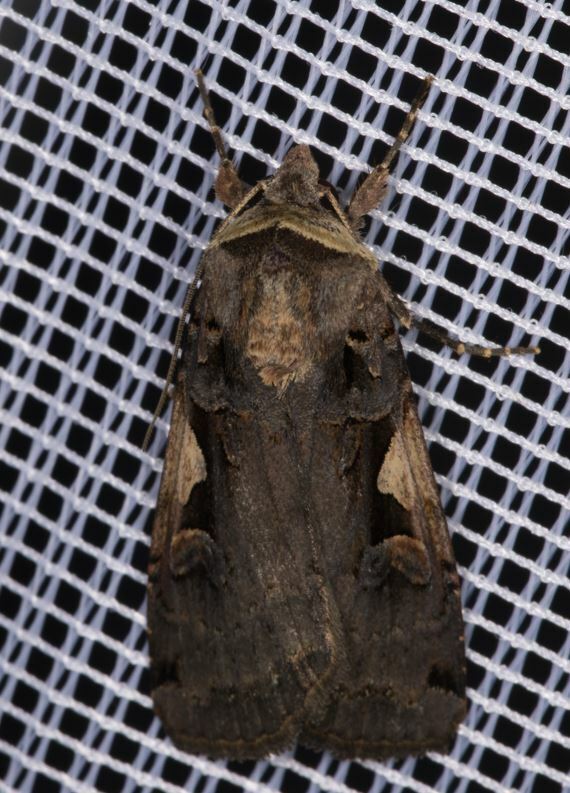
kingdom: Animalia
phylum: Arthropoda
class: Insecta
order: Lepidoptera
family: Noctuidae
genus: Xestia
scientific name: Xestia c-nigrum
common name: Setaceous hebrew character
